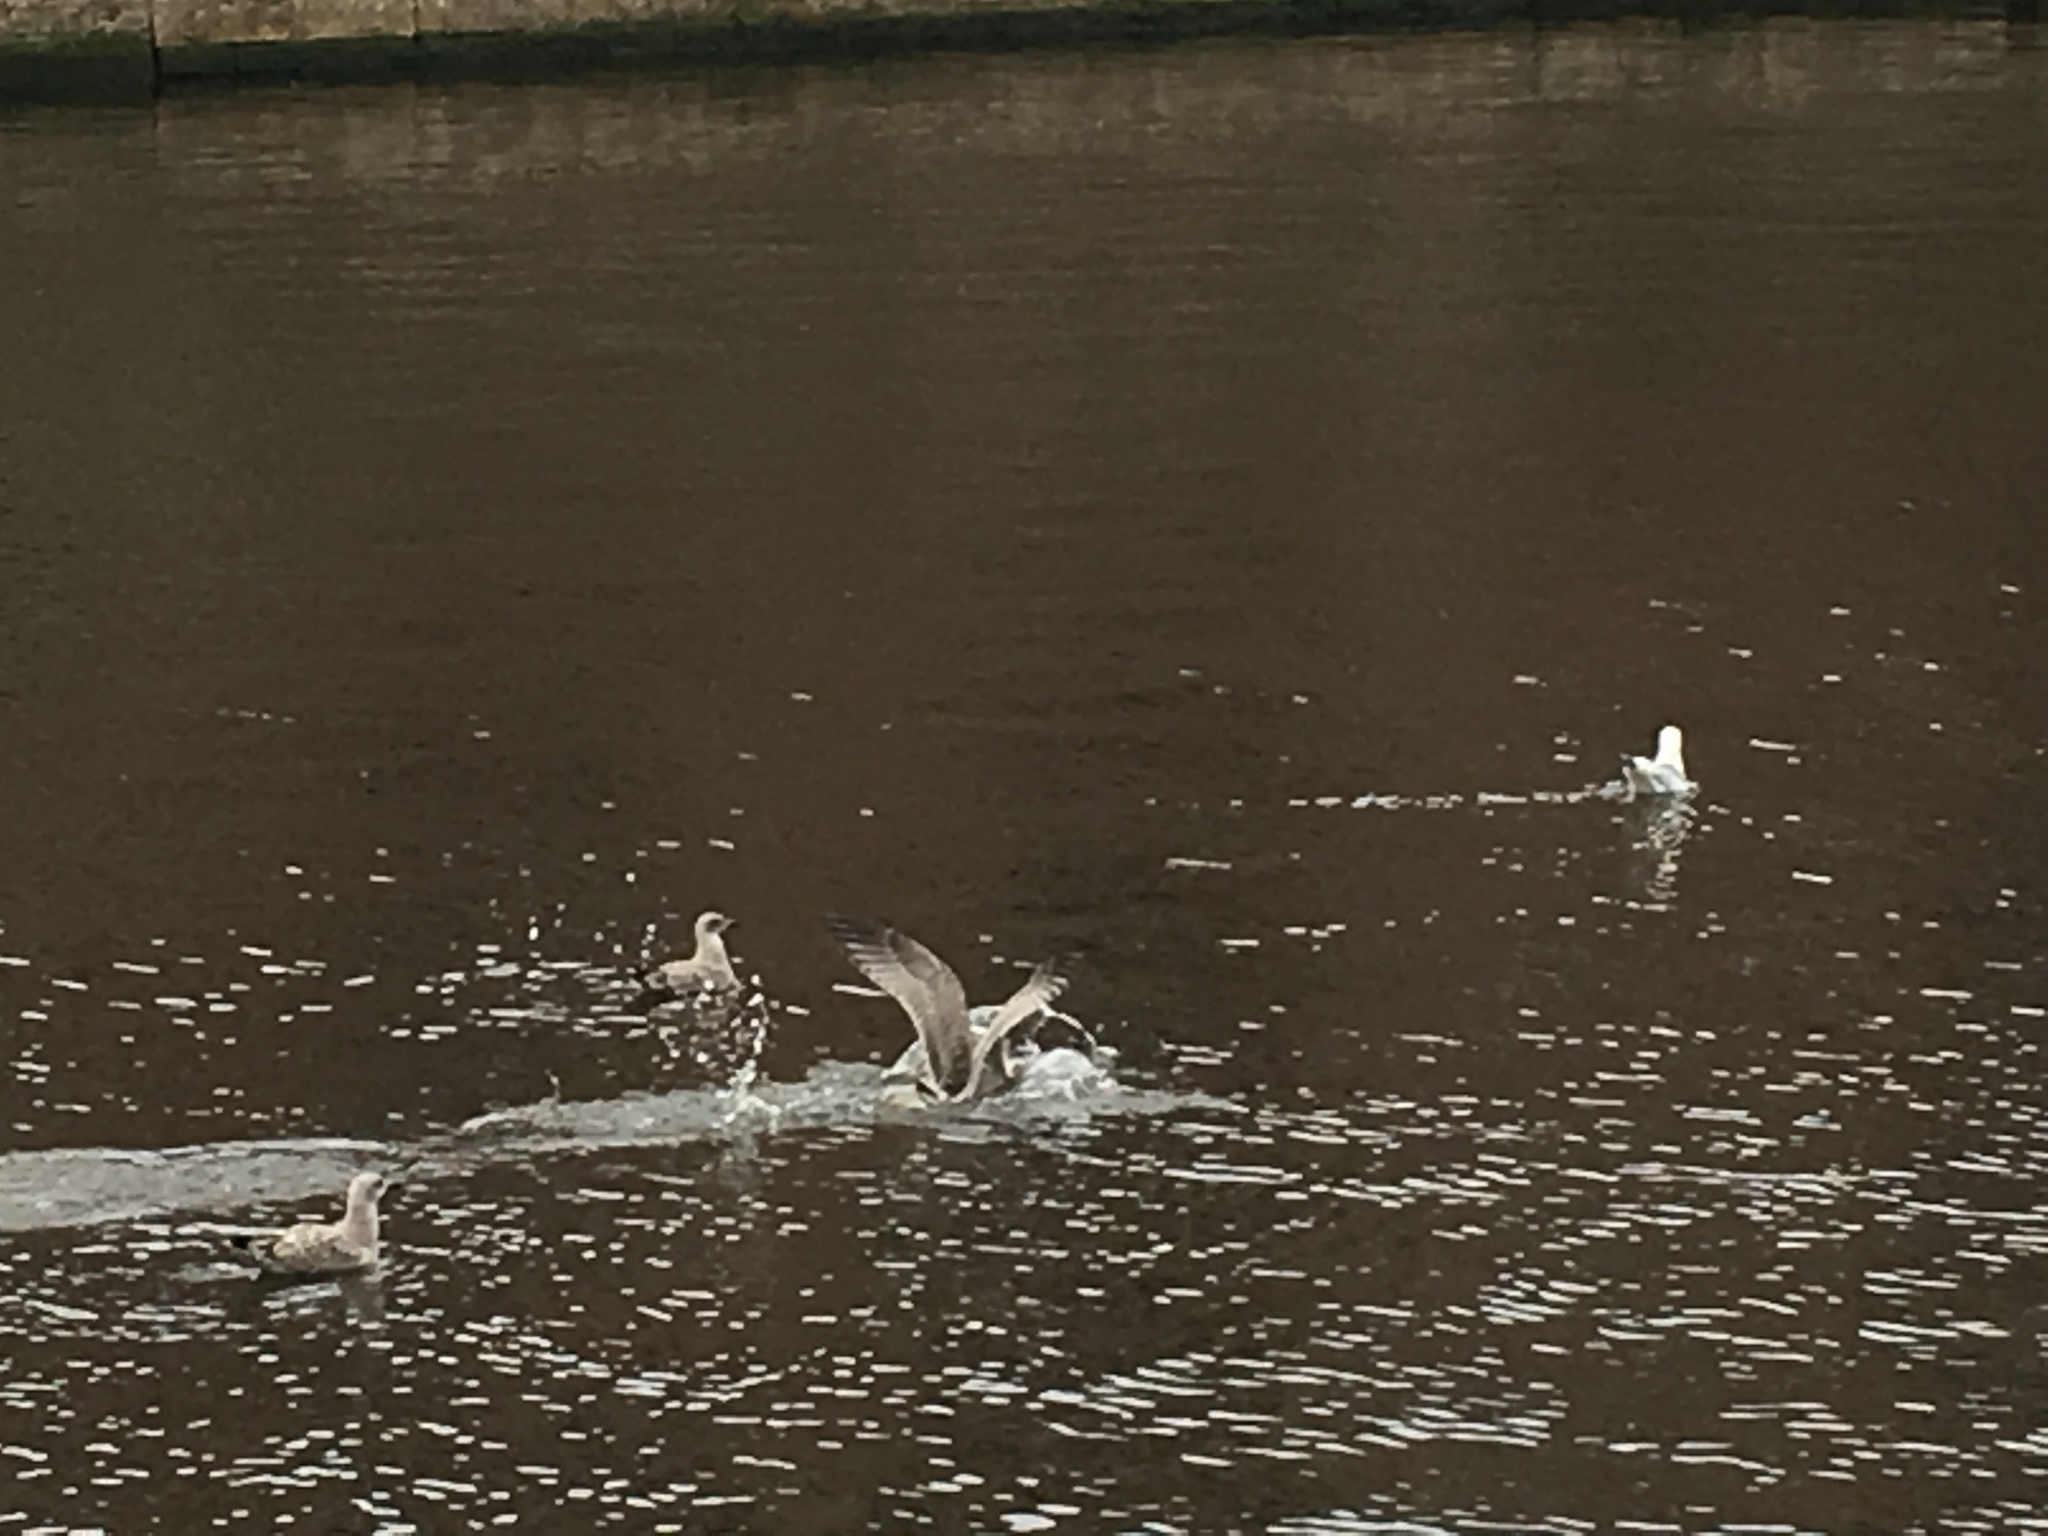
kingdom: Animalia
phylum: Chordata
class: Aves
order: Charadriiformes
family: Laridae
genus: Larus
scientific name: Larus argentatus
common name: Herring gull
